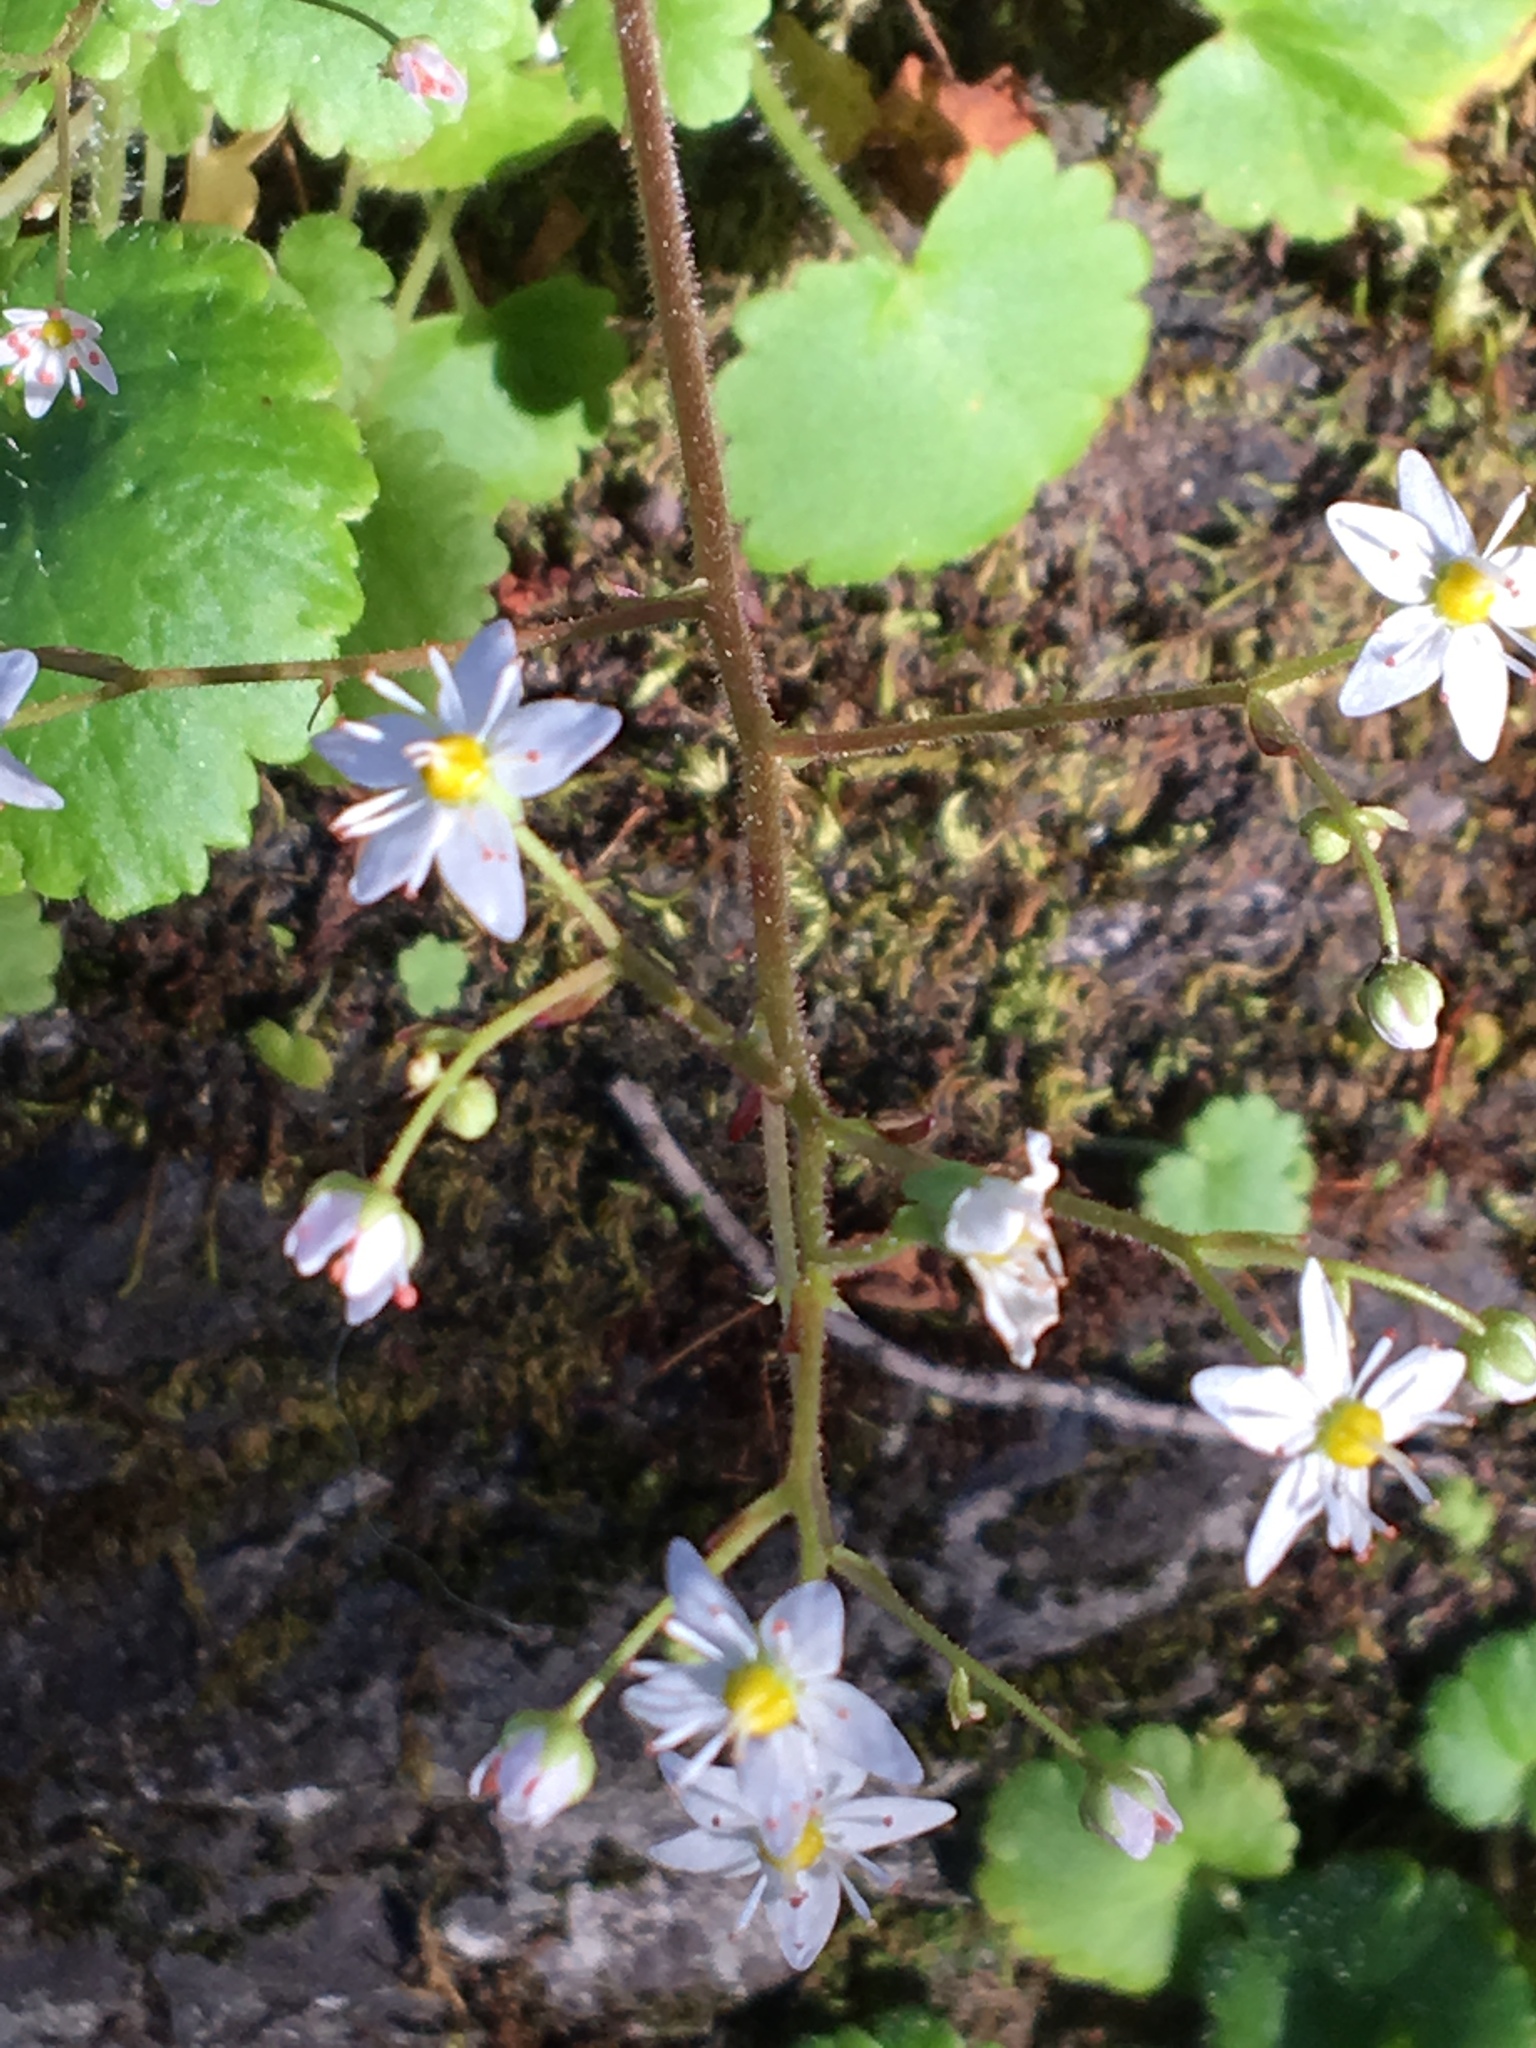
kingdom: Plantae
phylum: Tracheophyta
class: Magnoliopsida
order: Saxifragales
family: Saxifragaceae
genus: Micranthes
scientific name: Micranthes mertensiana
